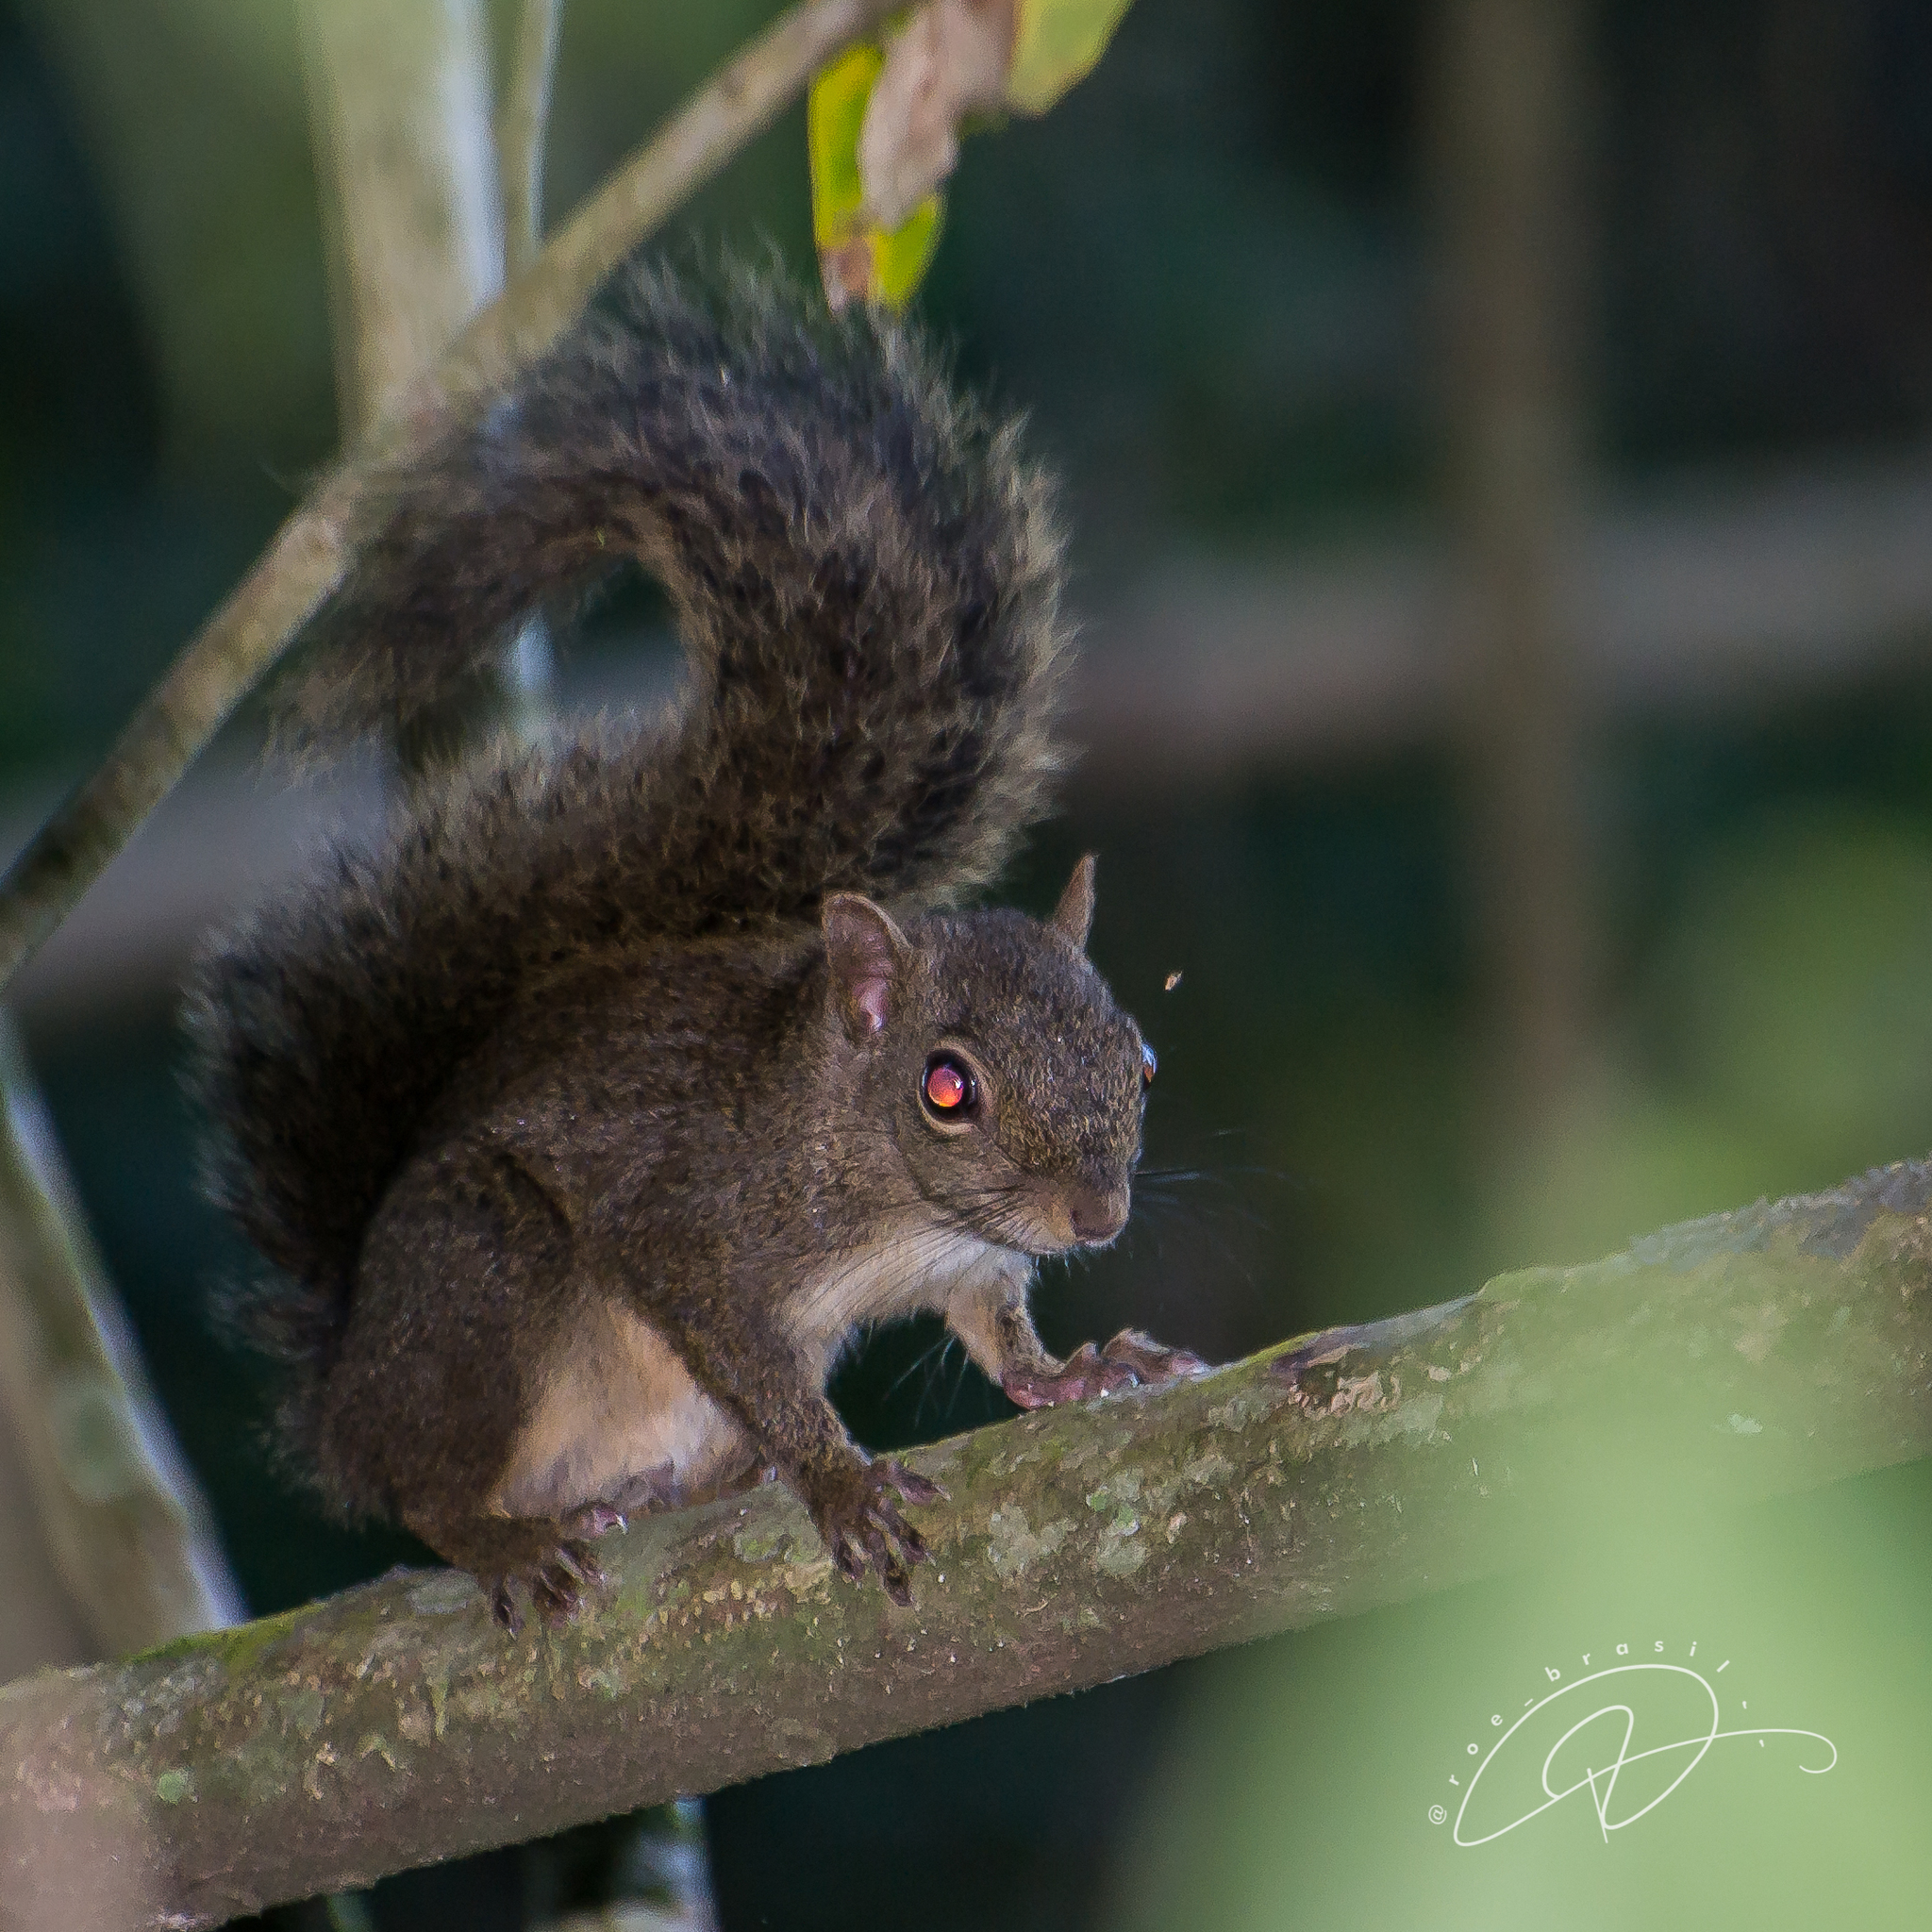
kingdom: Animalia
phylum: Chordata
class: Mammalia
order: Rodentia
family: Sciuridae
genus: Sciurus
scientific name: Sciurus aestuans
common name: Guianan squirrel
